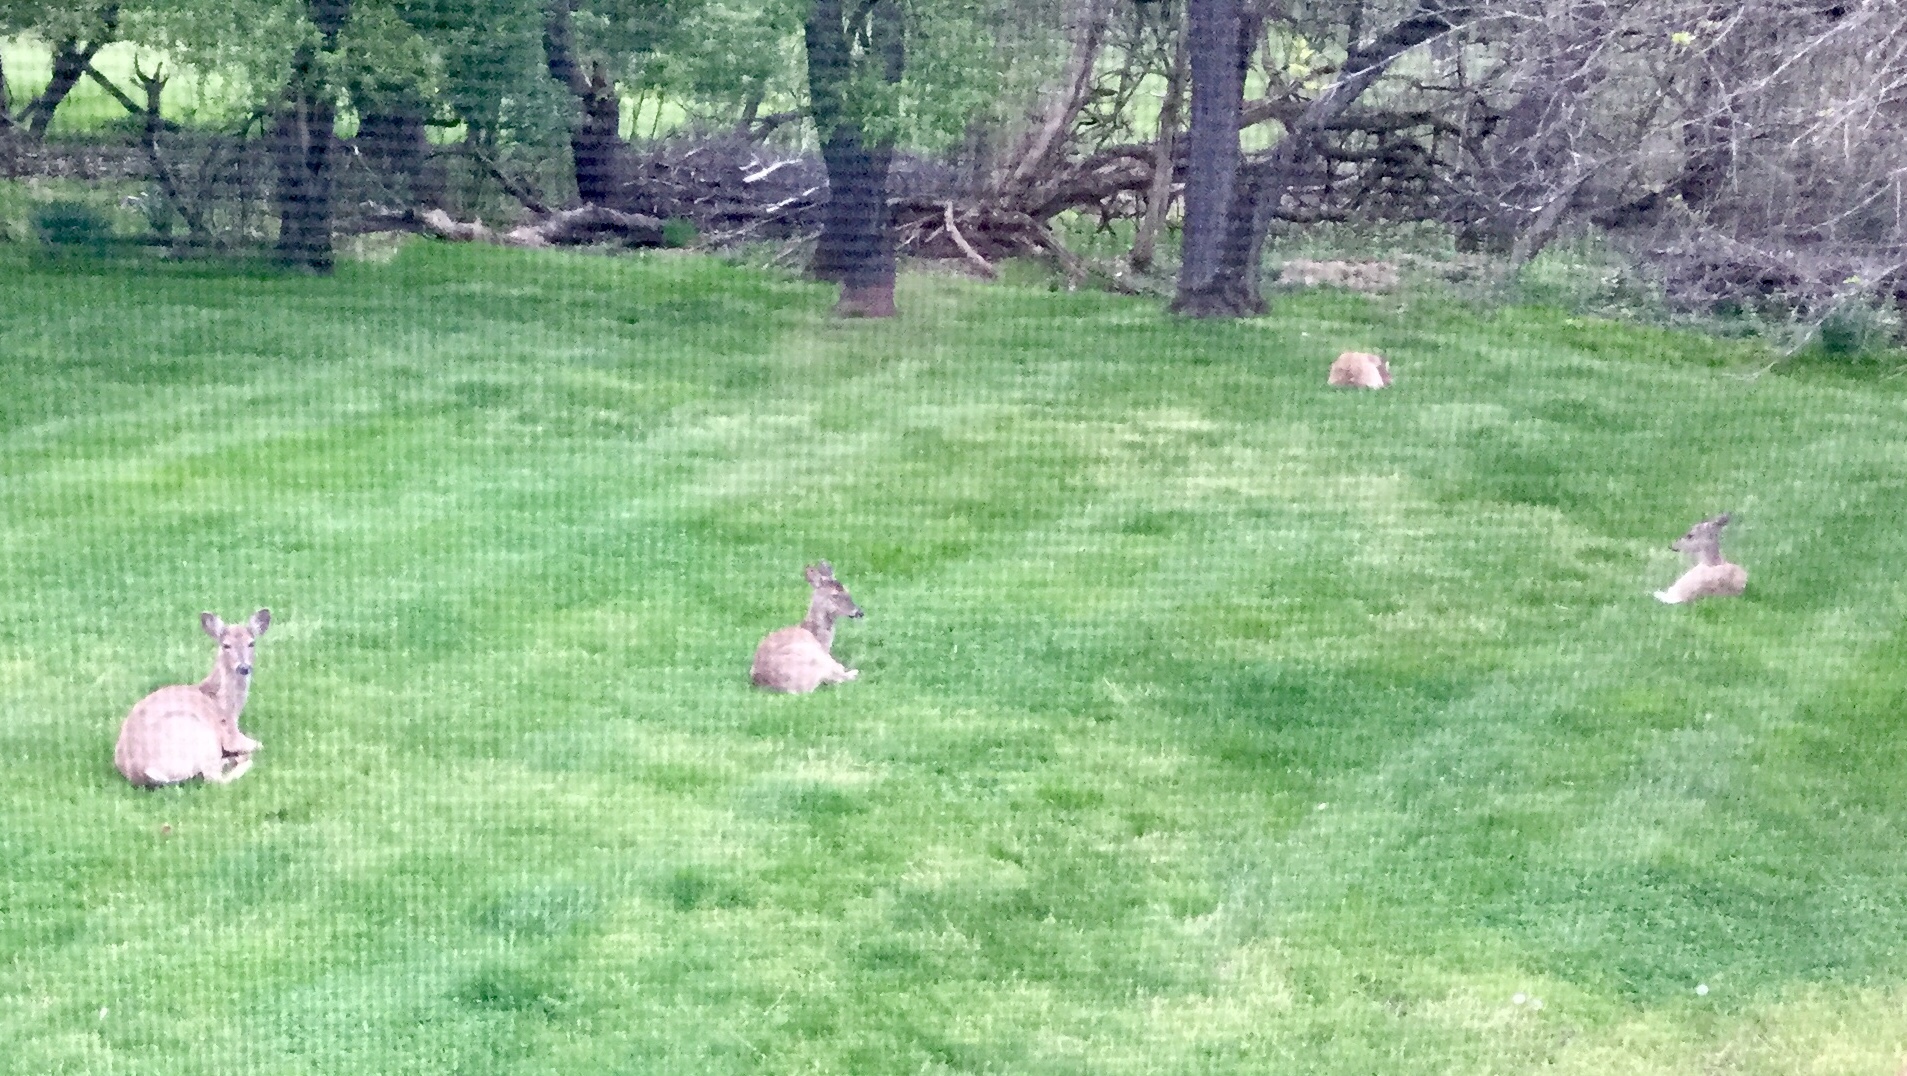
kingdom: Animalia
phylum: Chordata
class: Mammalia
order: Artiodactyla
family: Cervidae
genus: Odocoileus
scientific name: Odocoileus virginianus
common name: White-tailed deer
